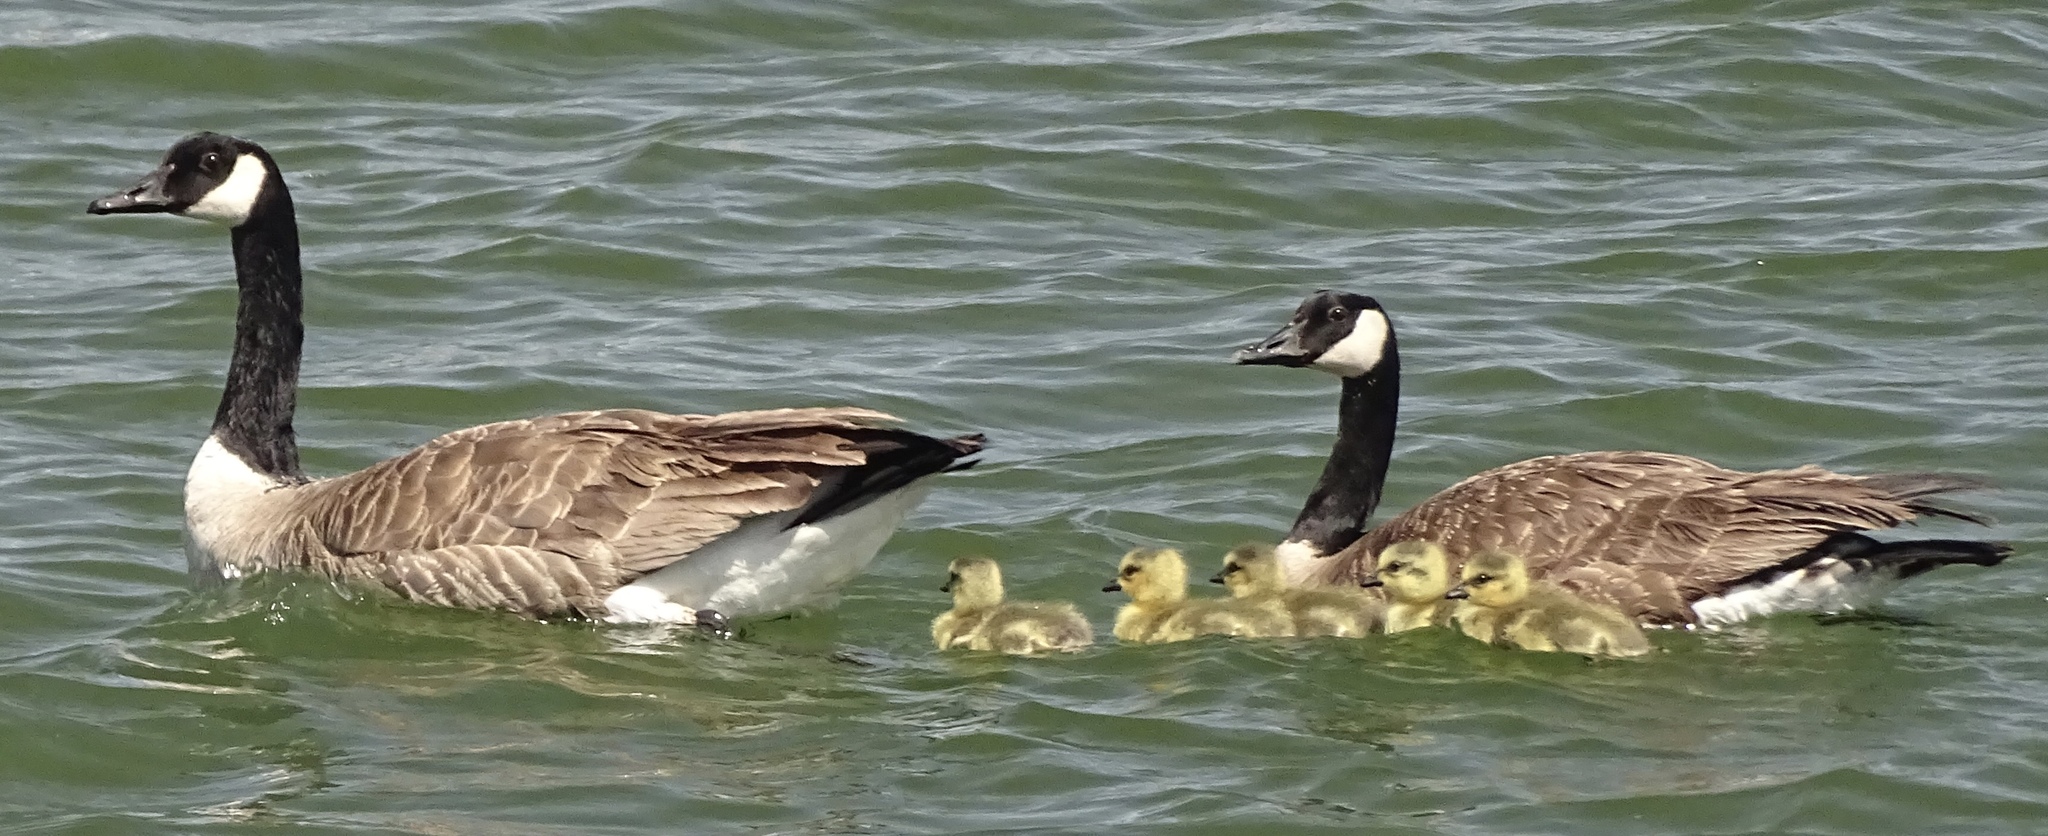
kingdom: Animalia
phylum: Chordata
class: Aves
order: Anseriformes
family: Anatidae
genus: Branta
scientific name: Branta canadensis
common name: Canada goose
